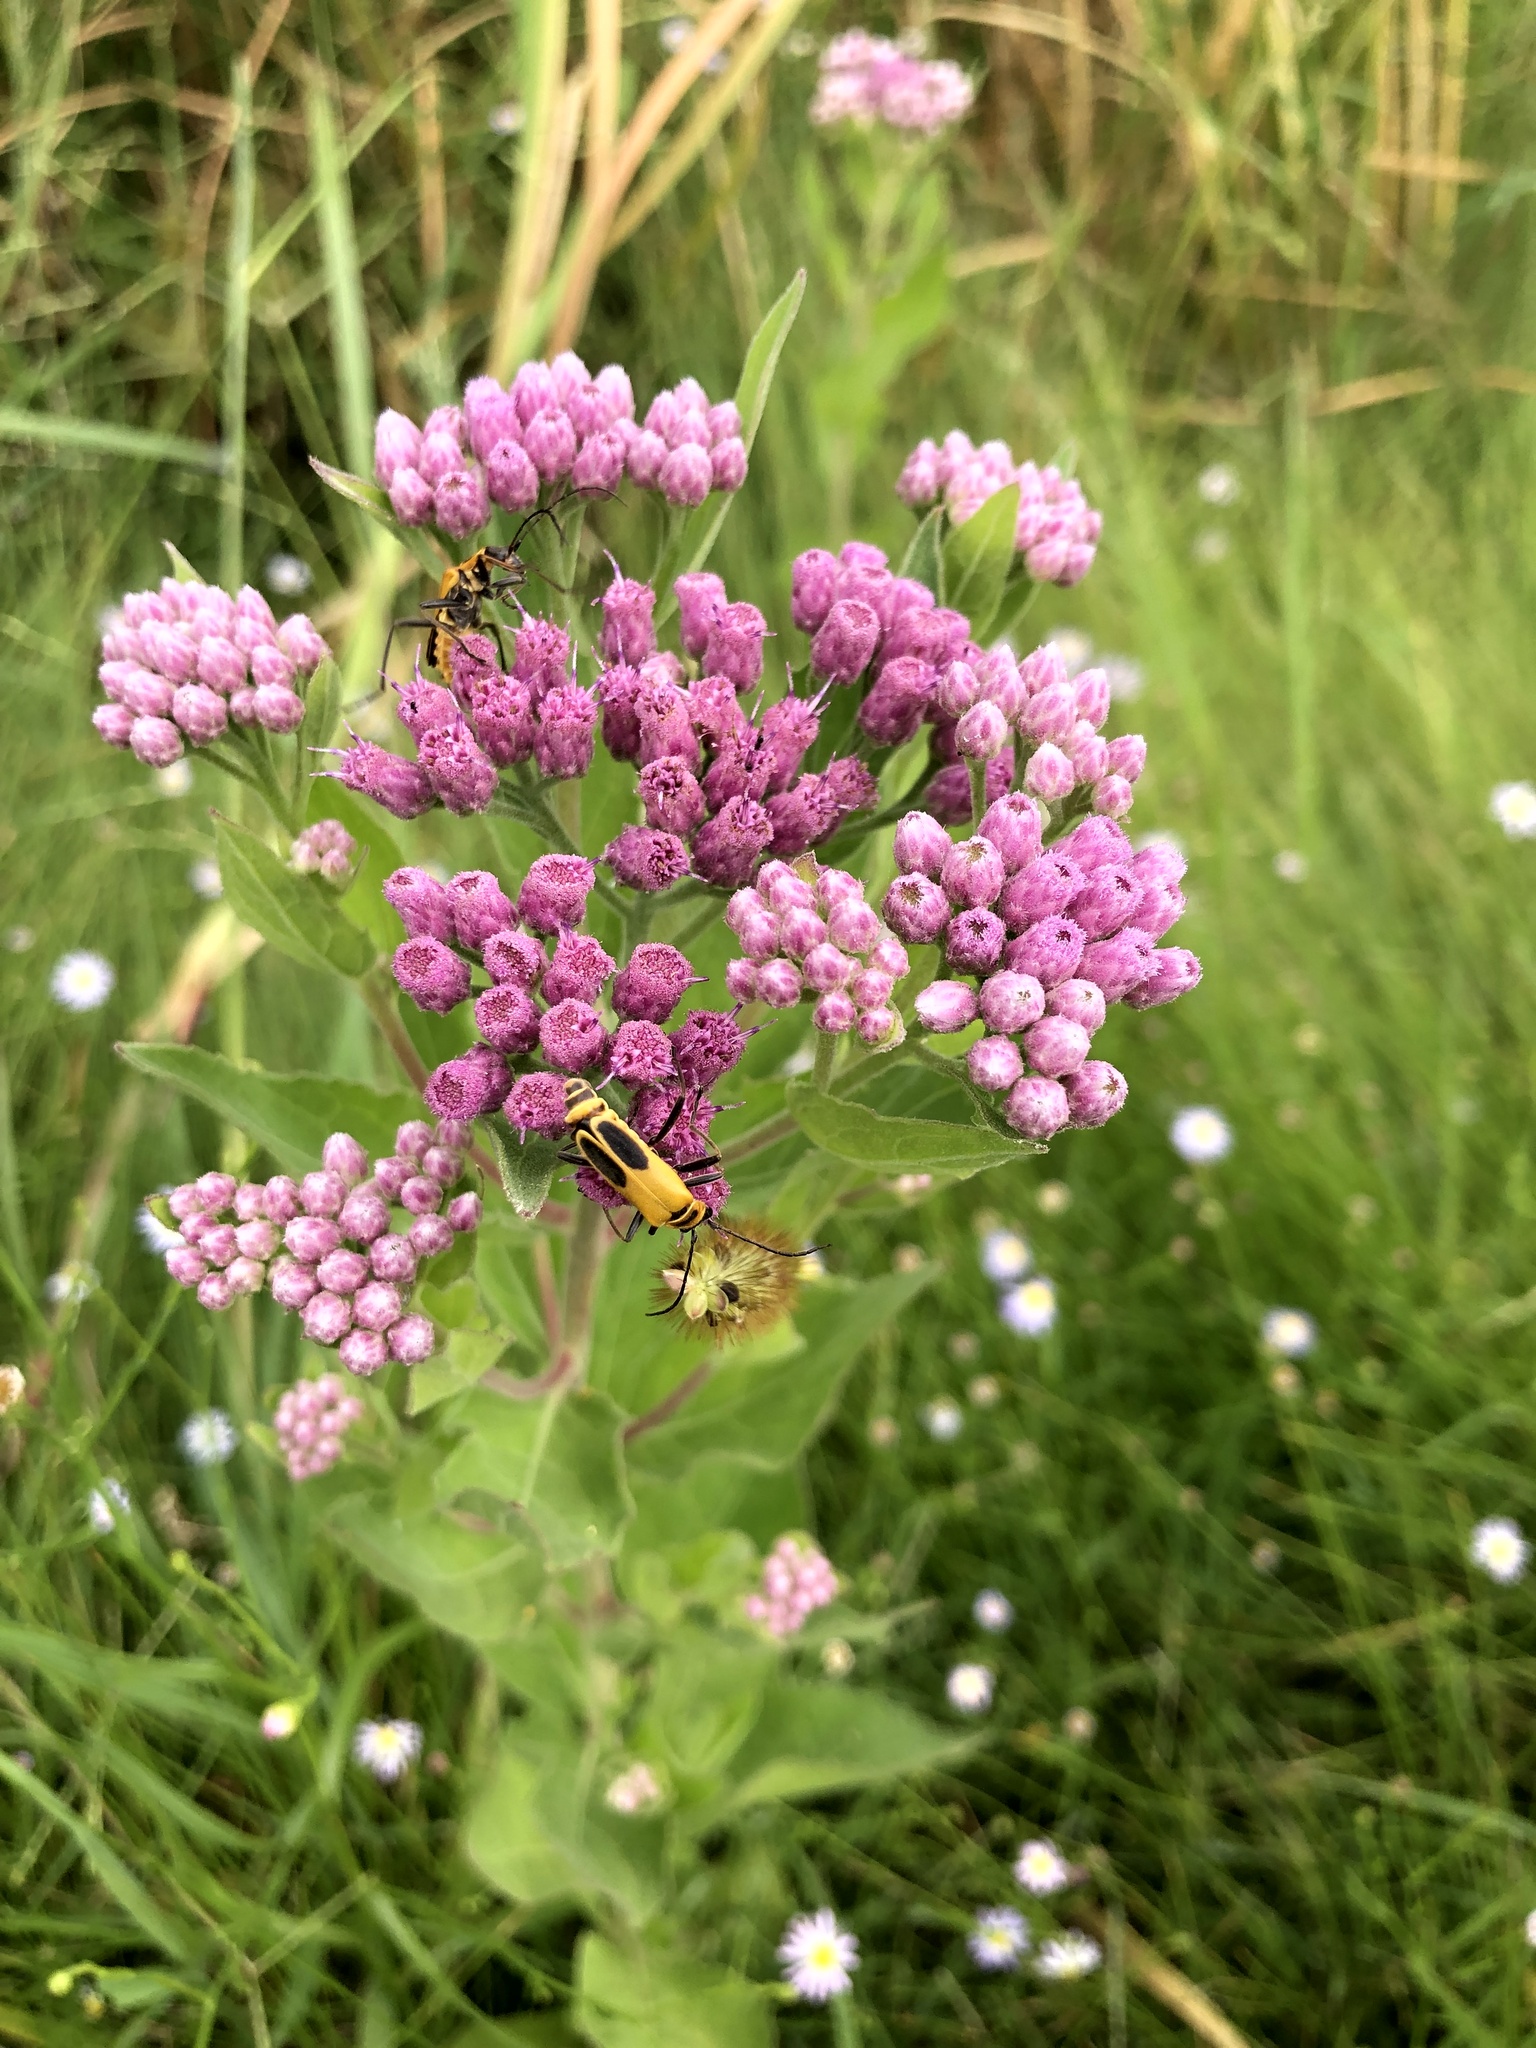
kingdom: Plantae
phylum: Tracheophyta
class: Magnoliopsida
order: Asterales
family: Asteraceae
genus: Pluchea
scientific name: Pluchea odorata
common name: Saltmarsh fleabane
